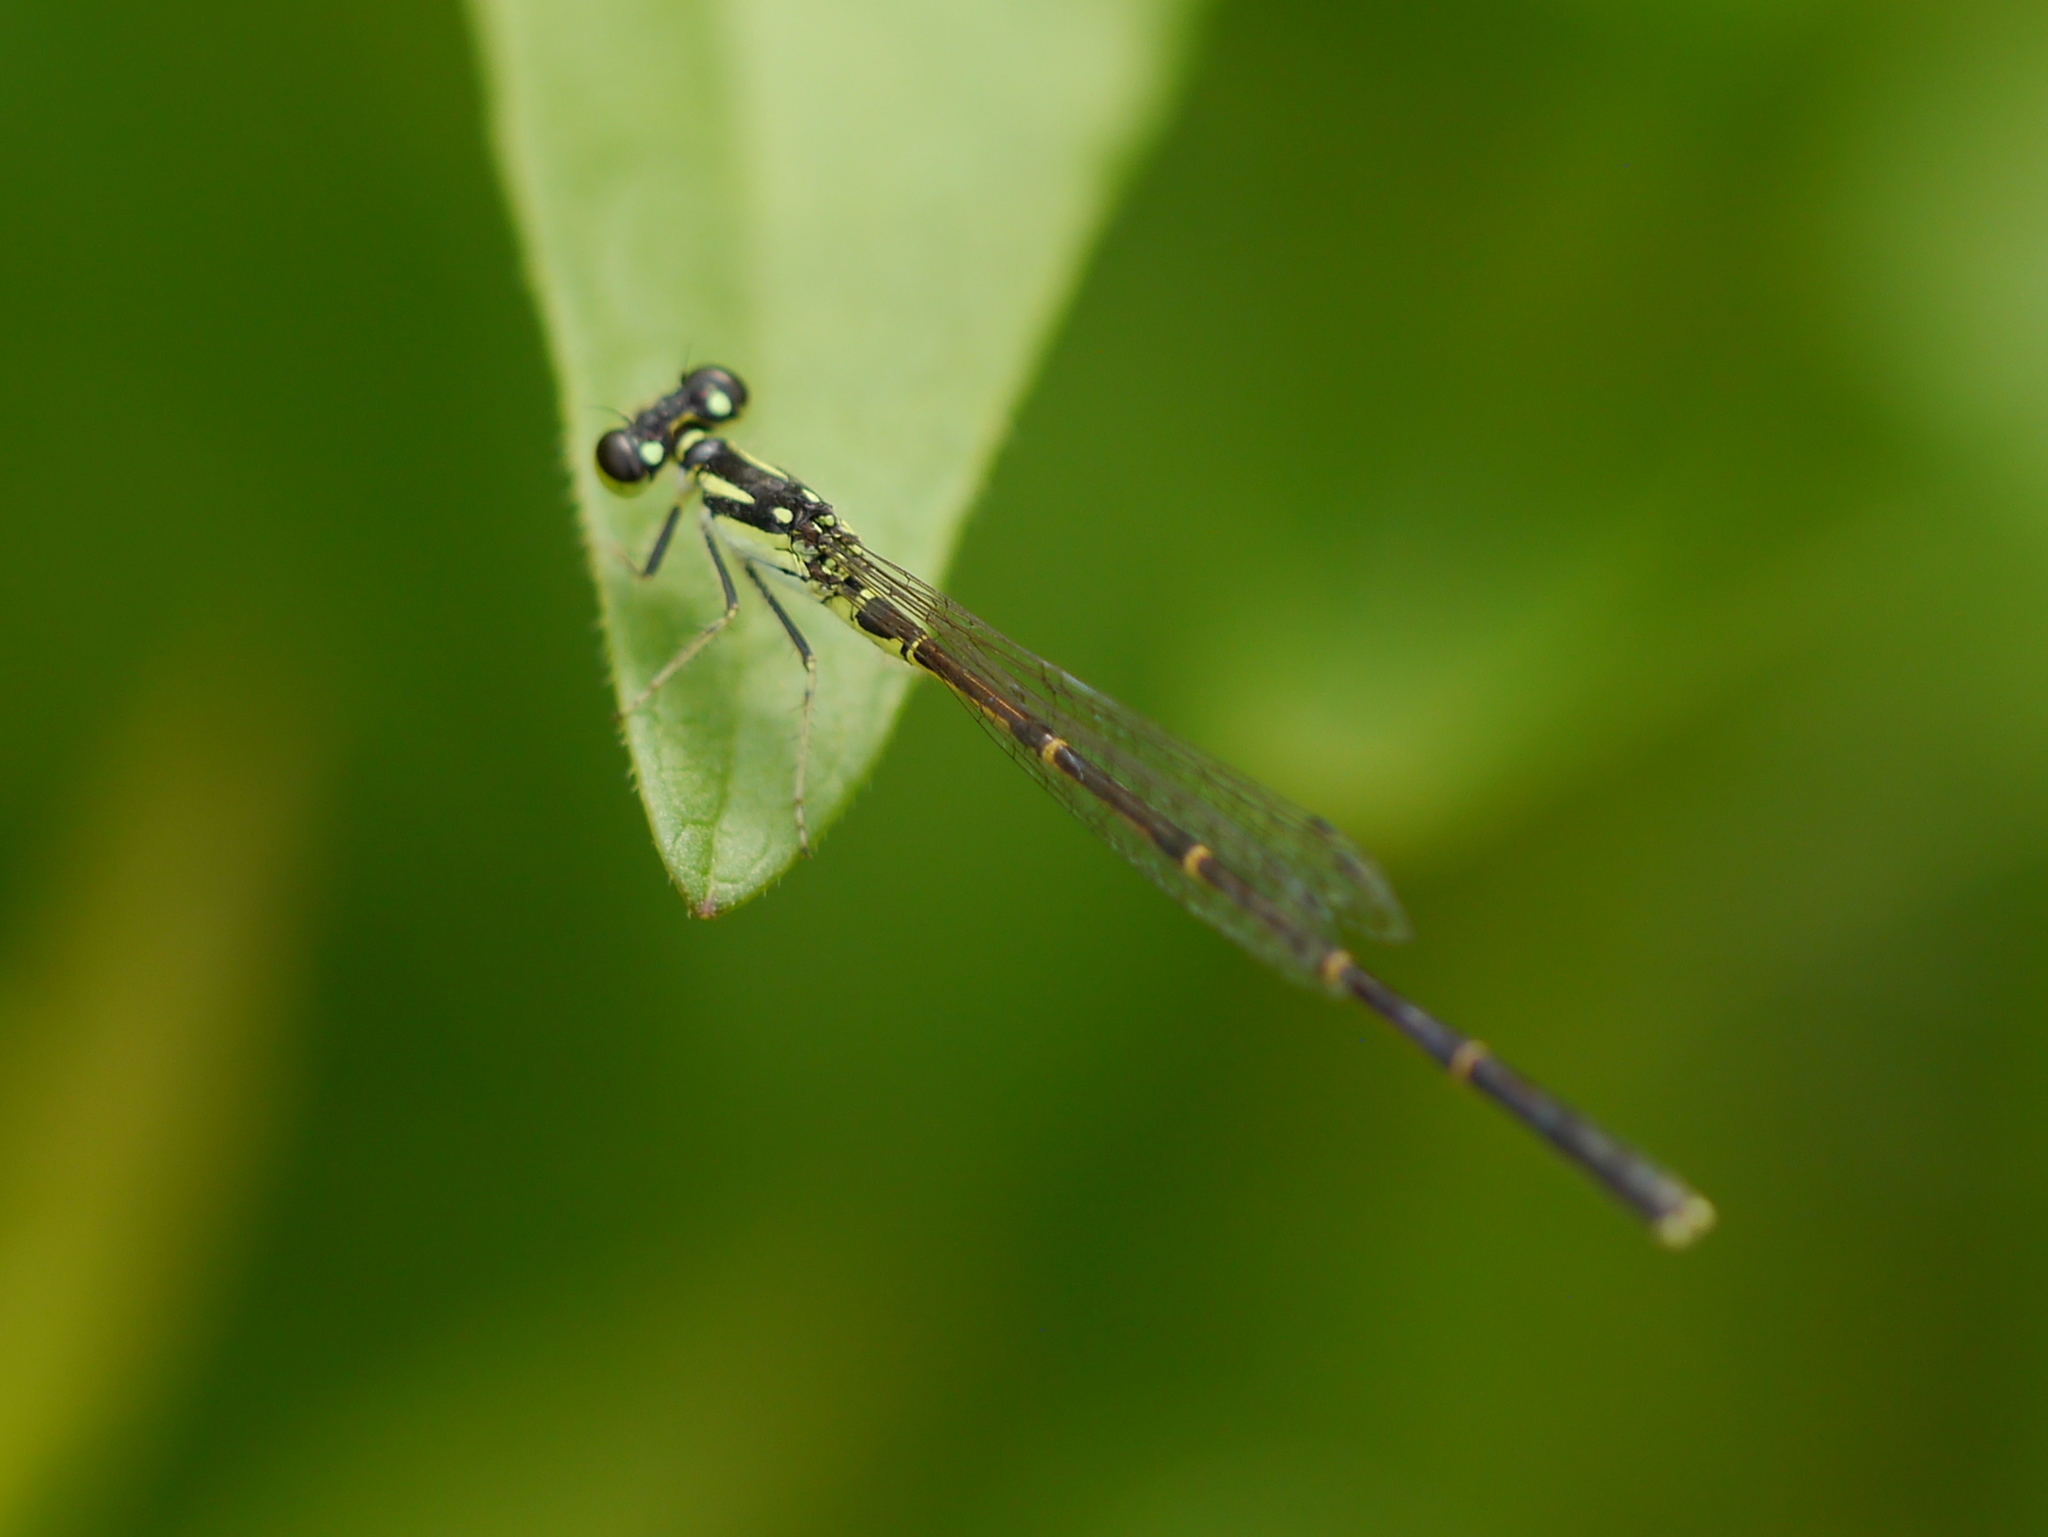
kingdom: Animalia
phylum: Arthropoda
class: Insecta
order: Odonata
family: Coenagrionidae
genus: Ischnura
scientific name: Ischnura posita
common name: Fragile forktail
